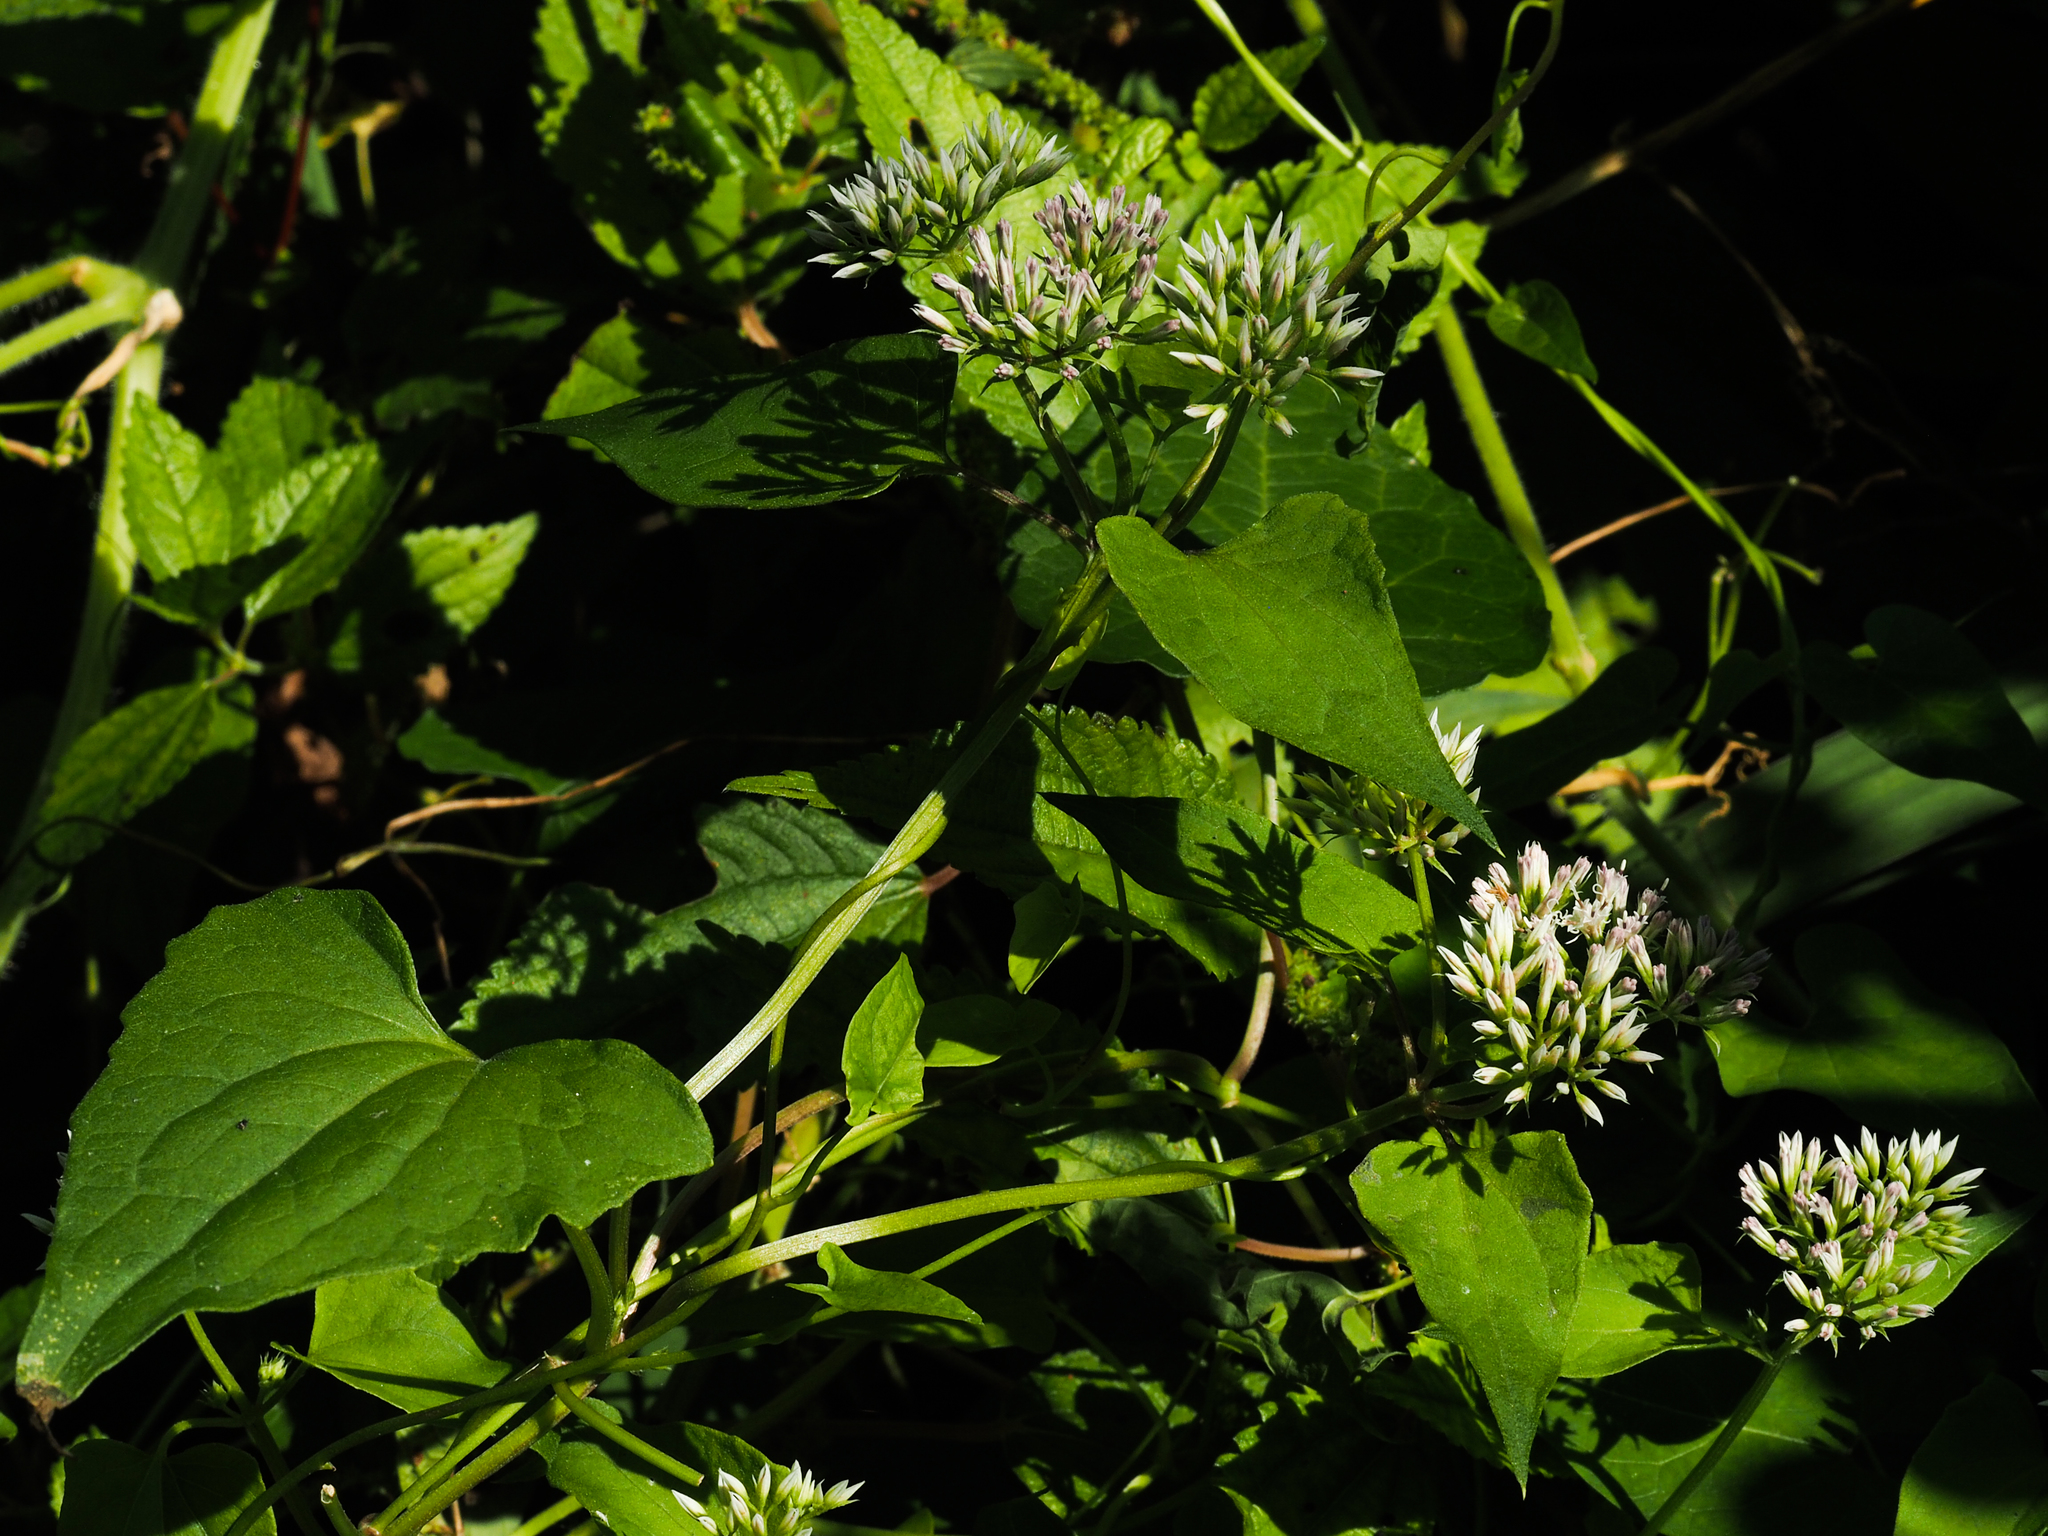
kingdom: Plantae
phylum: Tracheophyta
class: Magnoliopsida
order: Asterales
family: Asteraceae
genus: Mikania
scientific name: Mikania scandens
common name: Climbing hempvine
